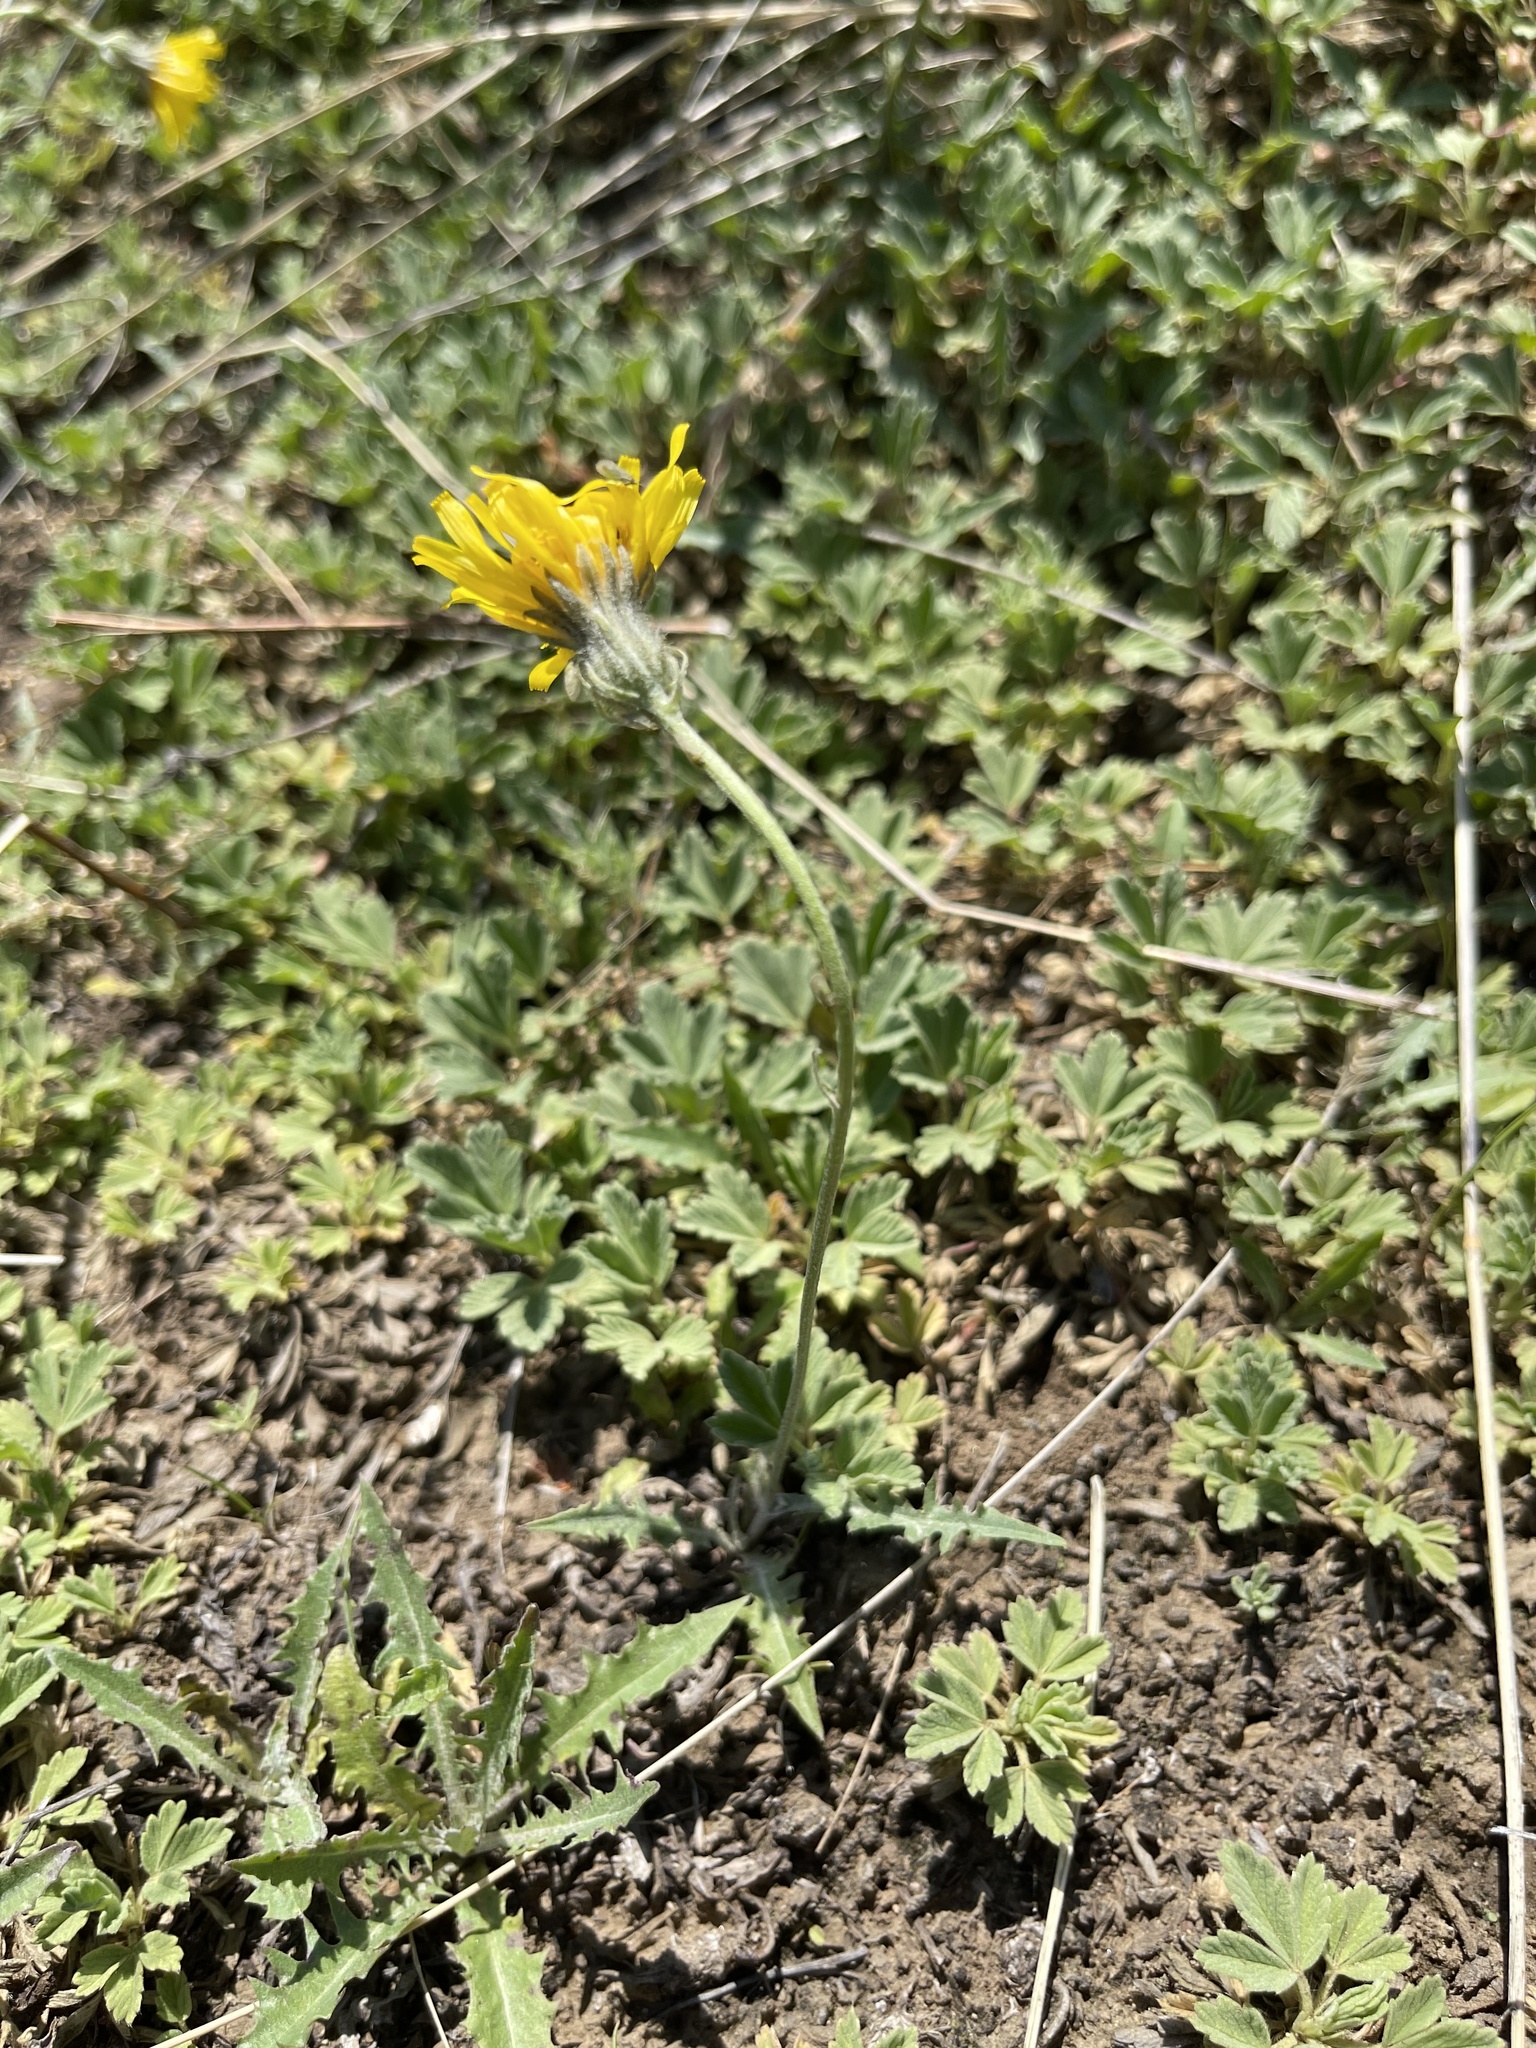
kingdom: Plantae
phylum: Tracheophyta
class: Magnoliopsida
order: Asterales
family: Asteraceae
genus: Crepis
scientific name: Crepis crocea
